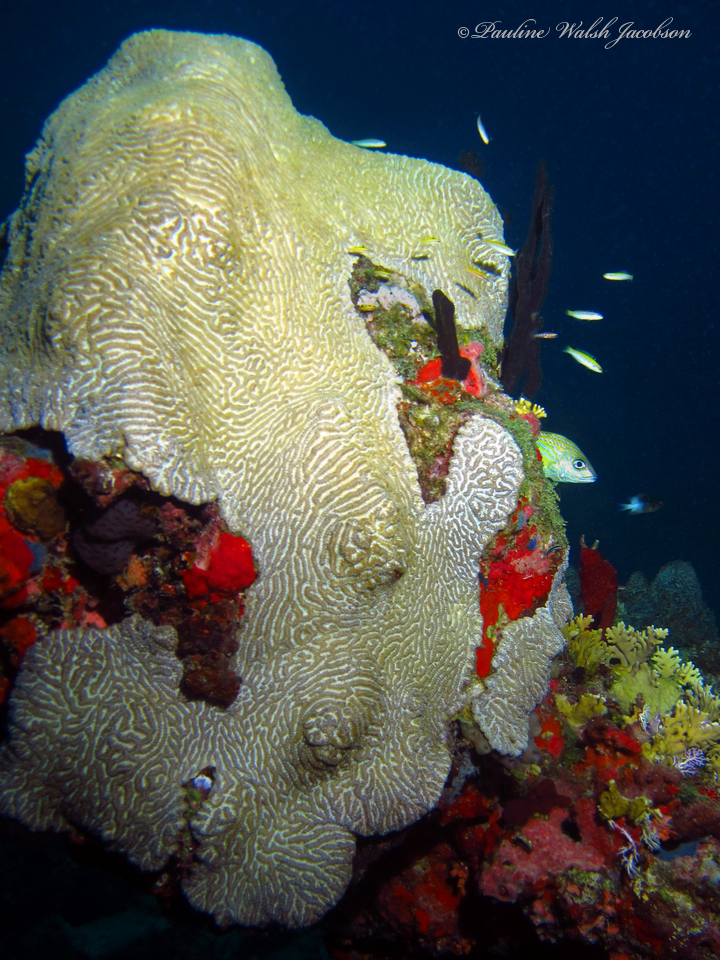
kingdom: Animalia
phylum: Cnidaria
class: Anthozoa
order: Scleractinia
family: Faviidae
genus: Pseudodiploria
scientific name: Pseudodiploria clivosa
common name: Knobby brain coral
